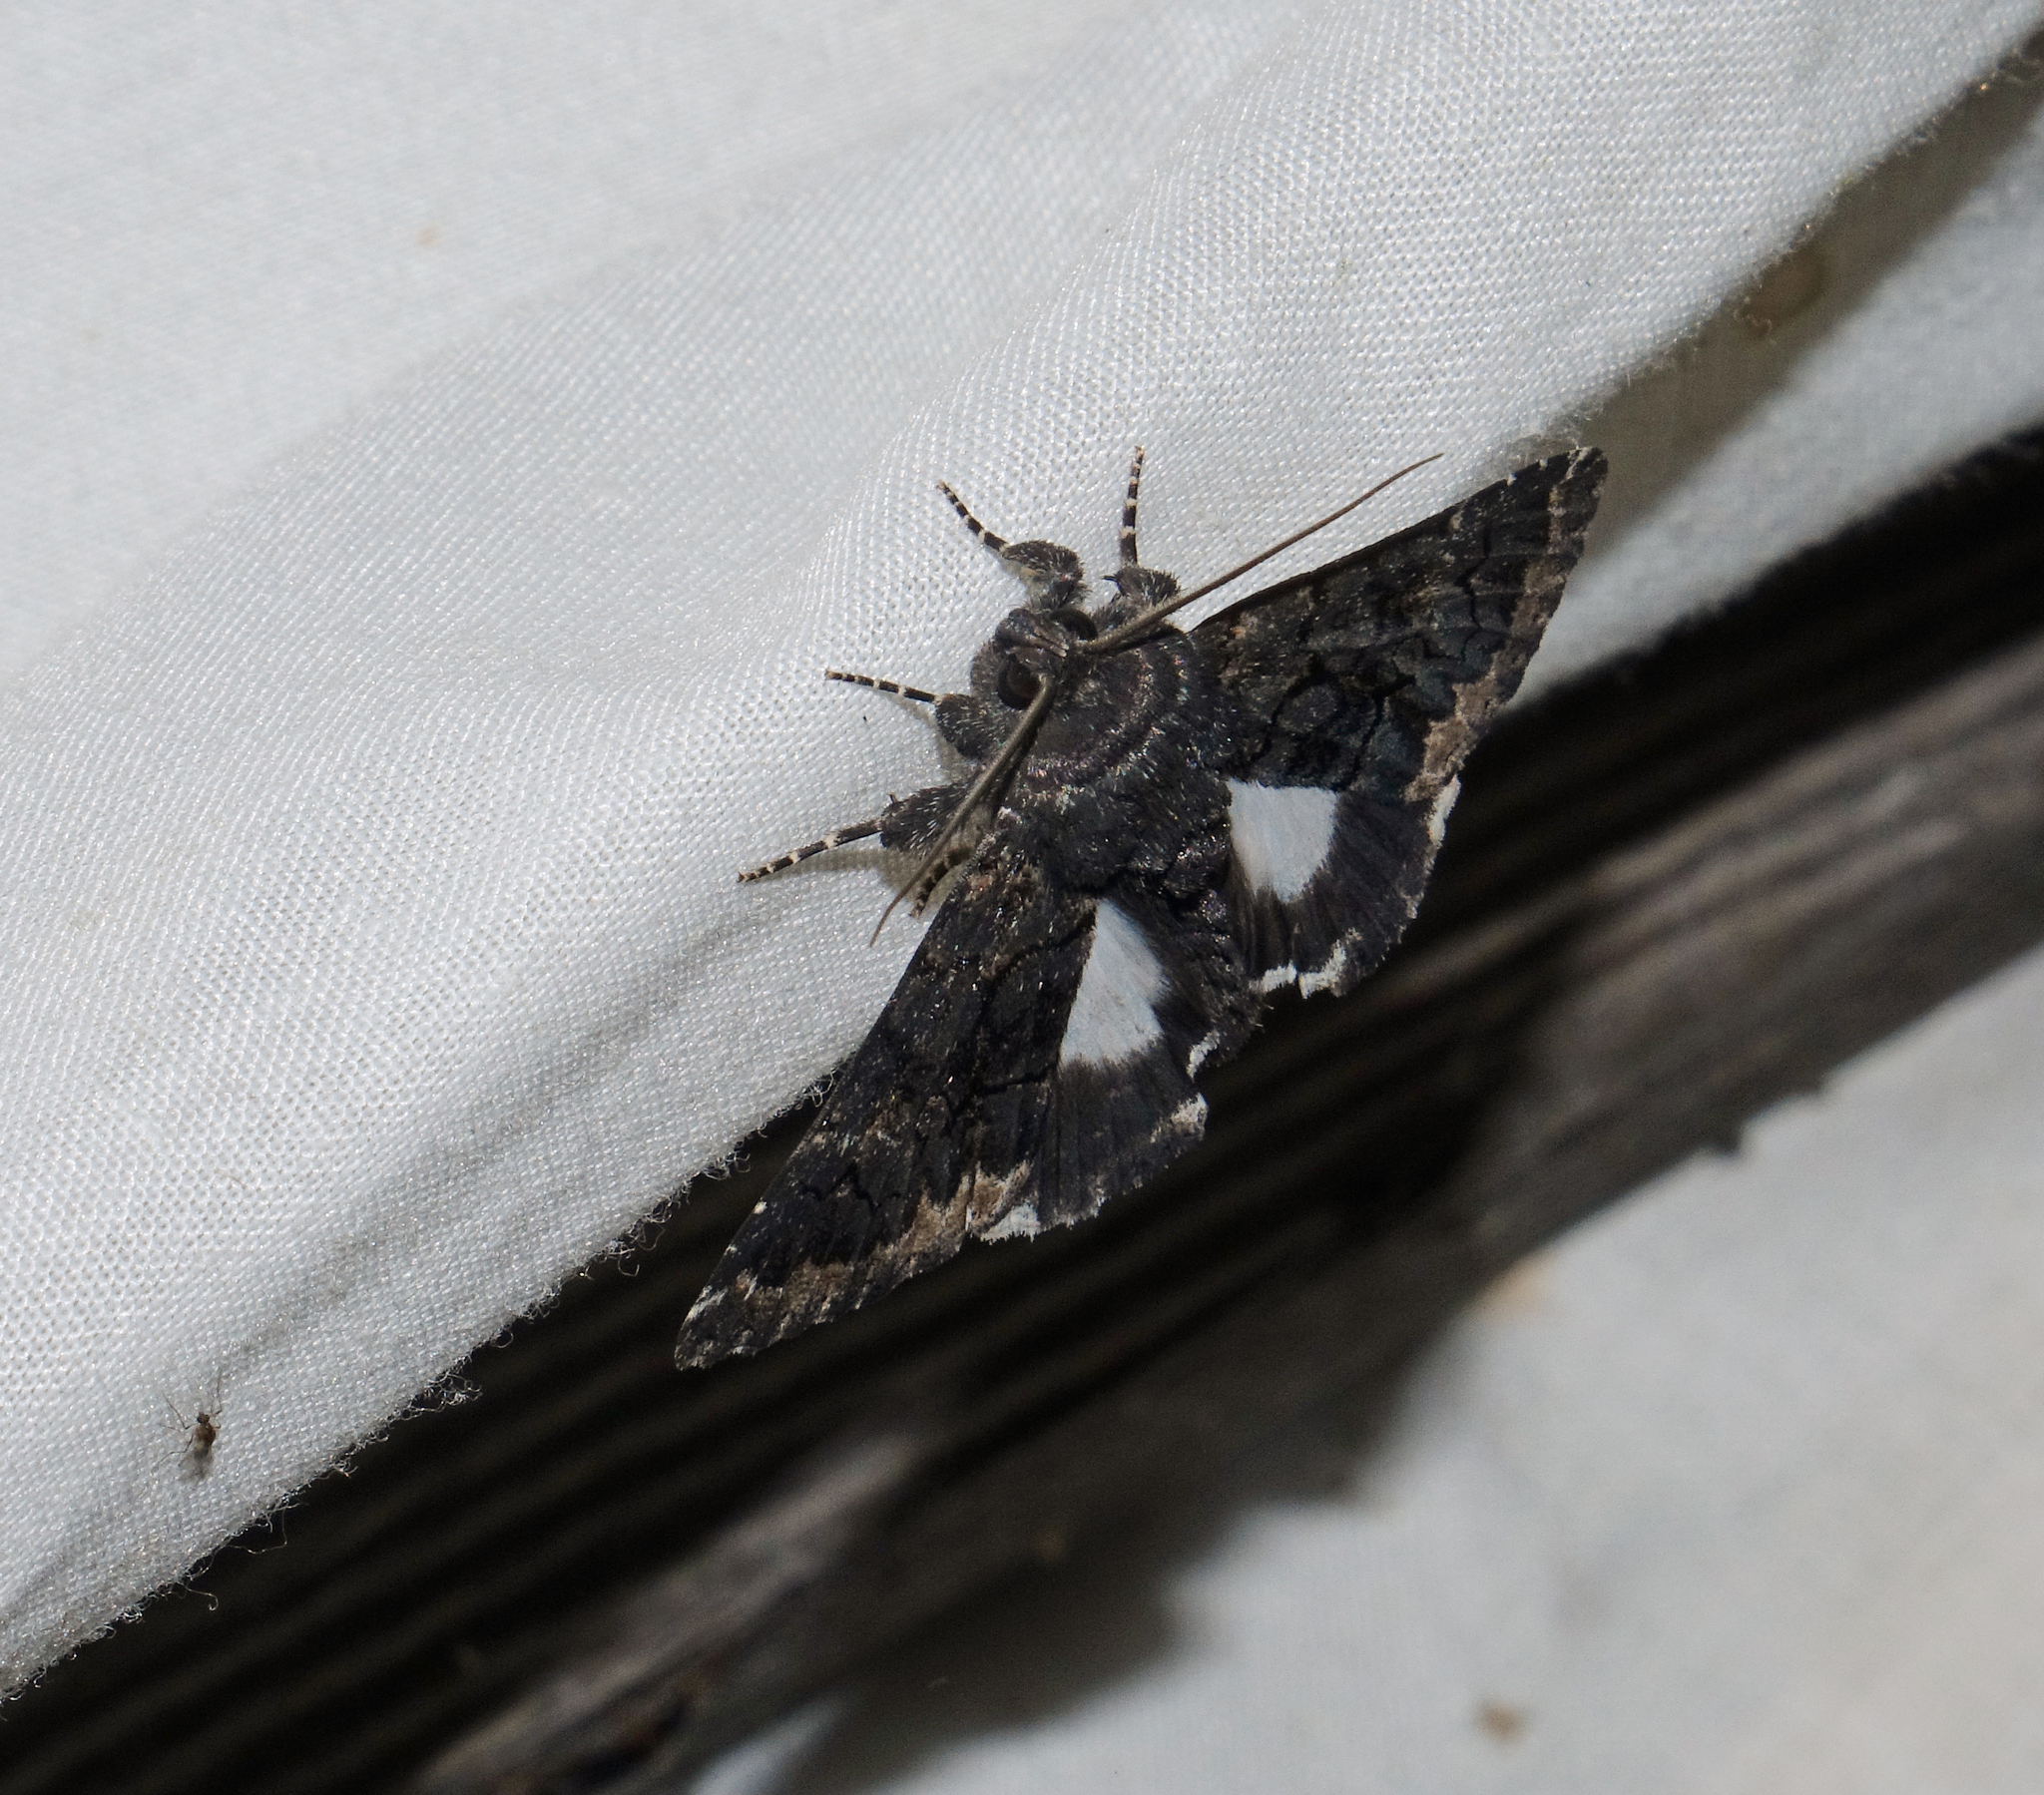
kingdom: Animalia
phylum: Arthropoda
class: Insecta
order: Lepidoptera
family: Erebidae
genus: Catephia
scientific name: Catephia alchymista
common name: Alchymist
